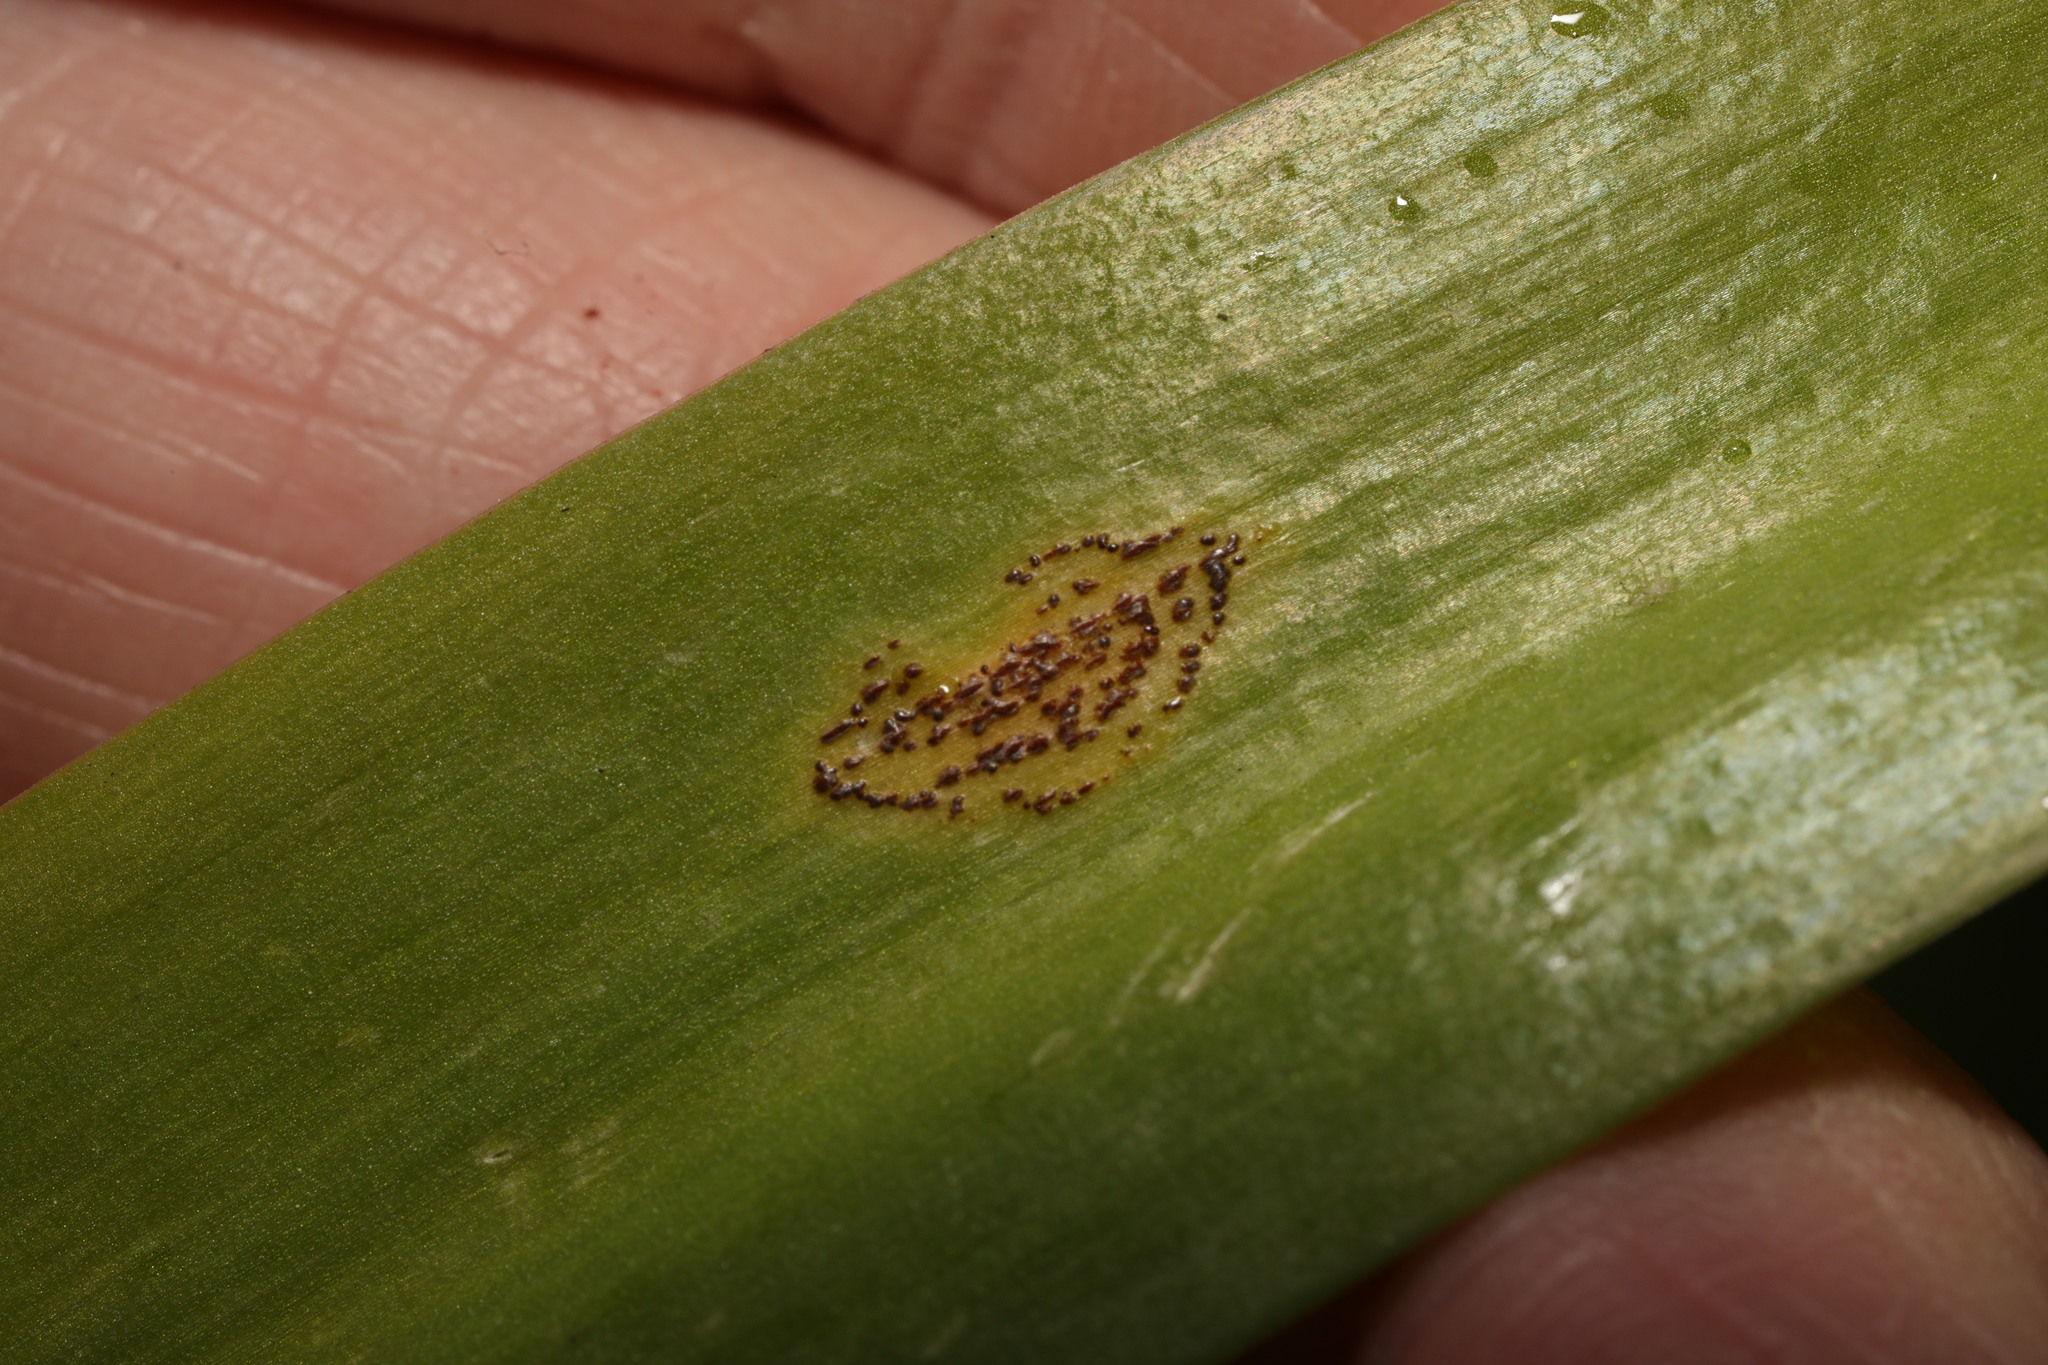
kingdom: Fungi
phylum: Basidiomycota
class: Pucciniomycetes
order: Pucciniales
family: Pucciniaceae
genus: Uromyces
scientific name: Uromyces hyacinthi
